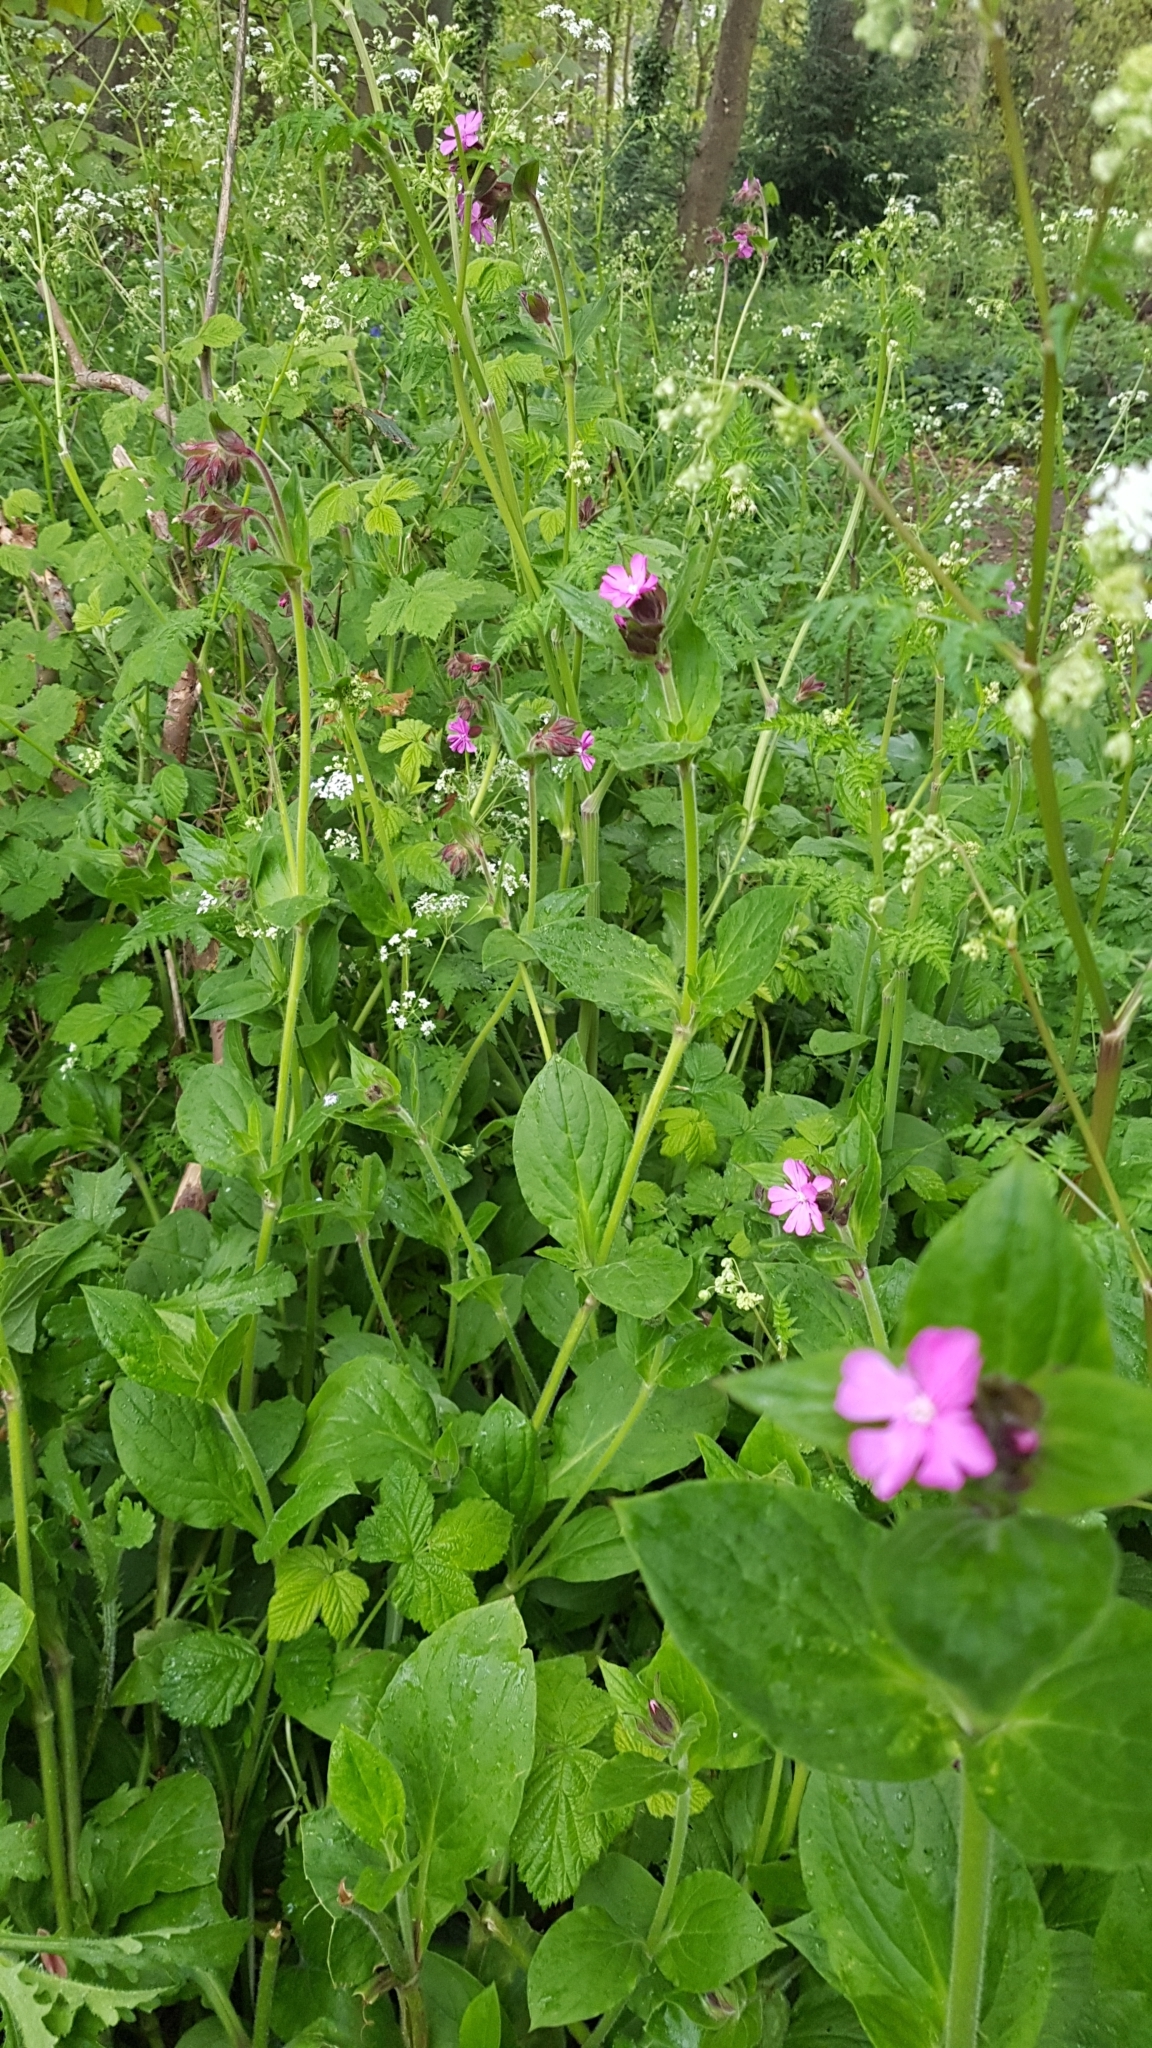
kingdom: Plantae
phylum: Tracheophyta
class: Magnoliopsida
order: Caryophyllales
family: Caryophyllaceae
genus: Silene
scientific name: Silene dioica
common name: Red campion
